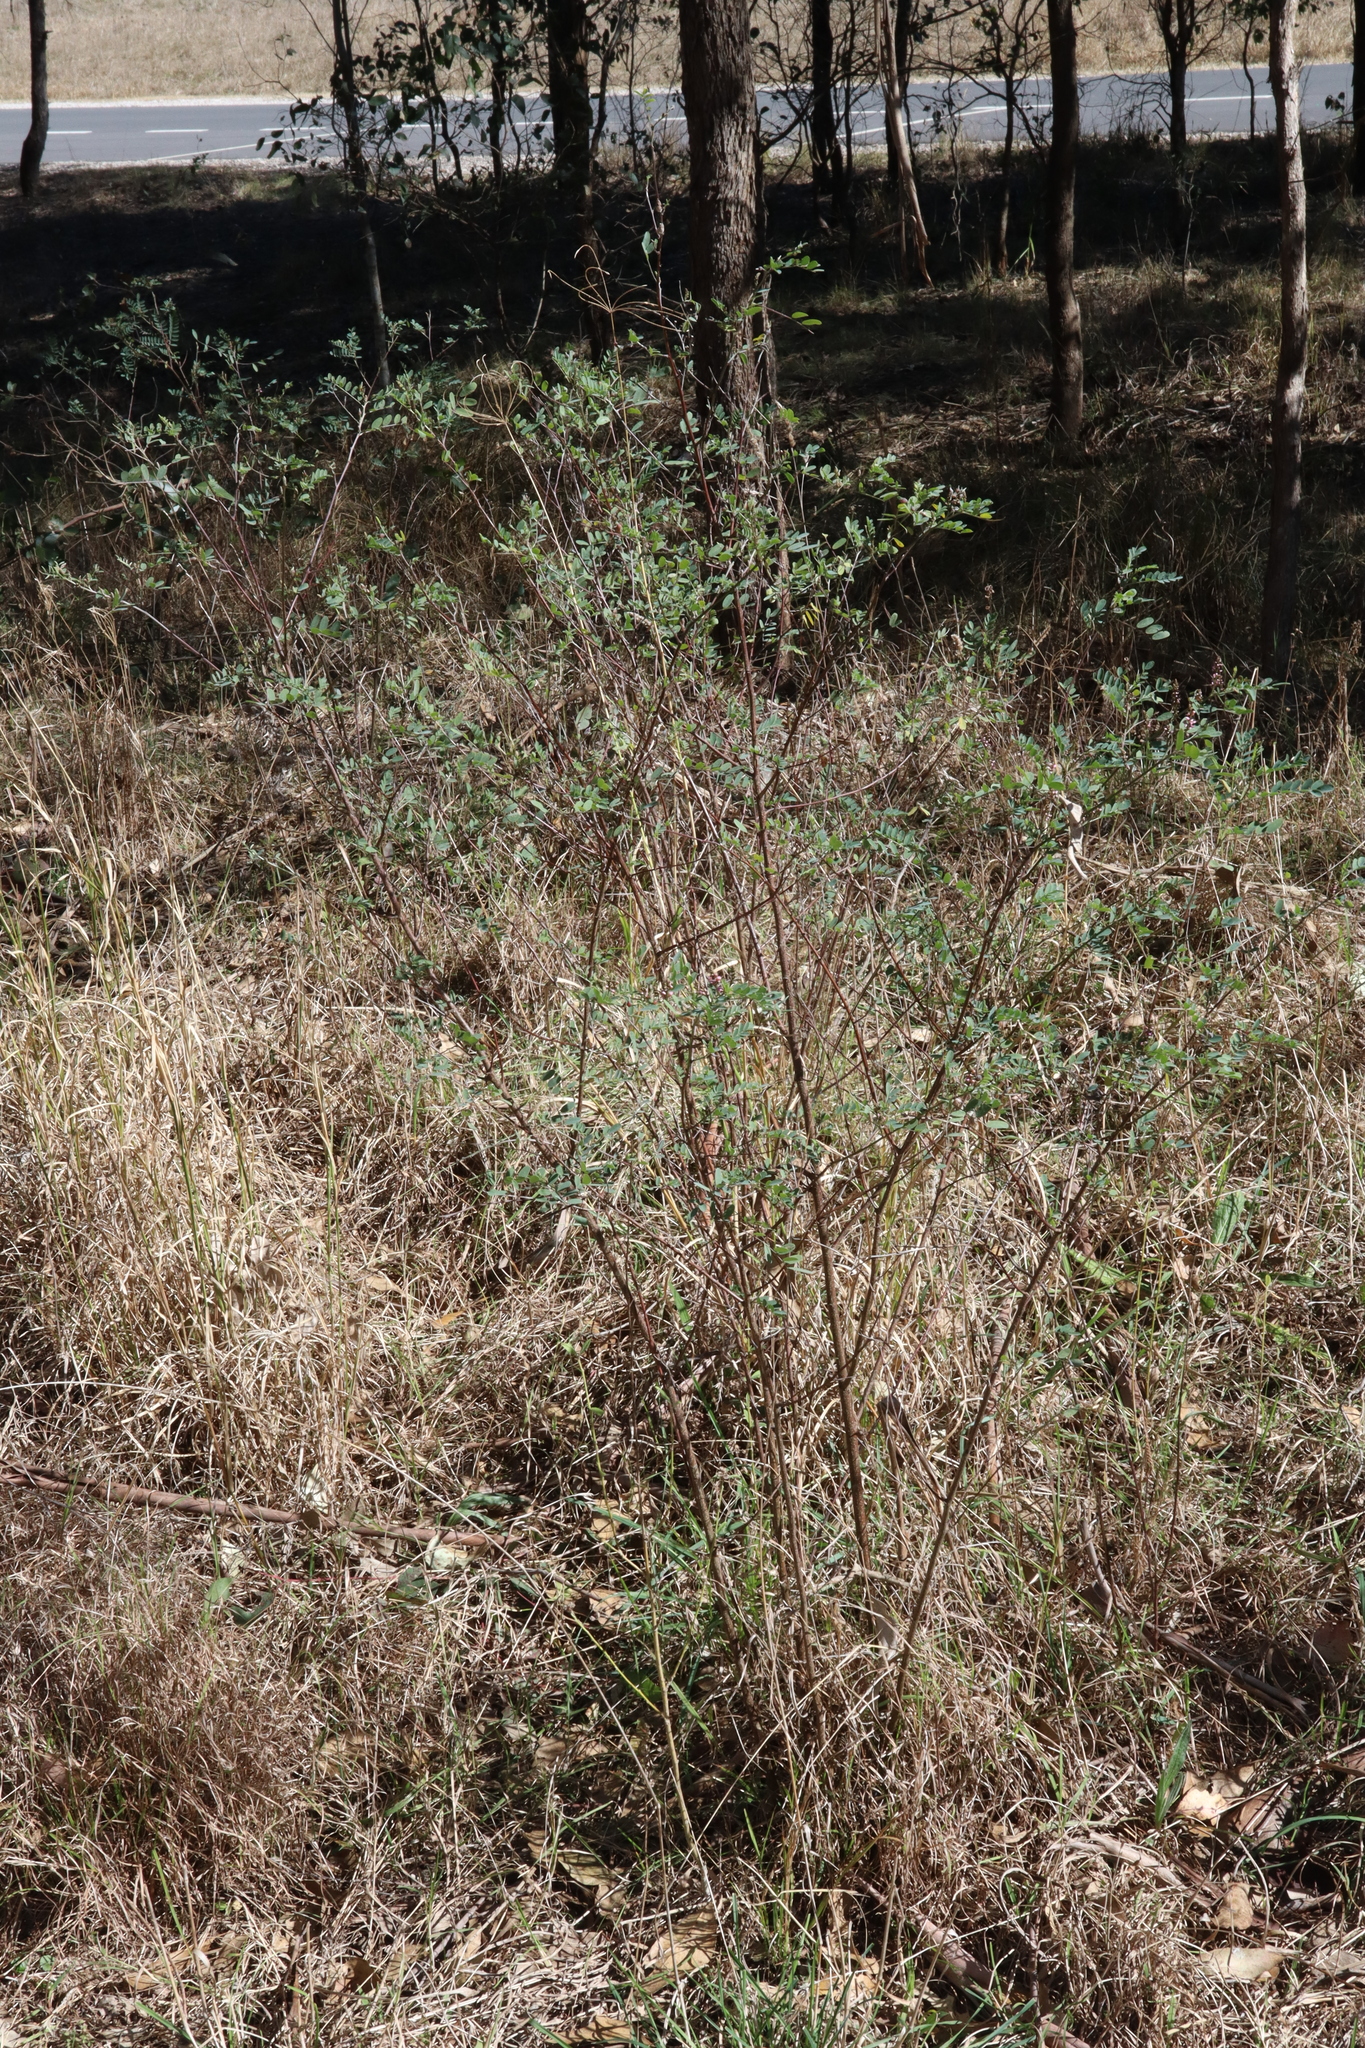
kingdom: Plantae
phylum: Tracheophyta
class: Magnoliopsida
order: Fabales
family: Fabaceae
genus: Indigofera
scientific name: Indigofera australis
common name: Australian indigo
